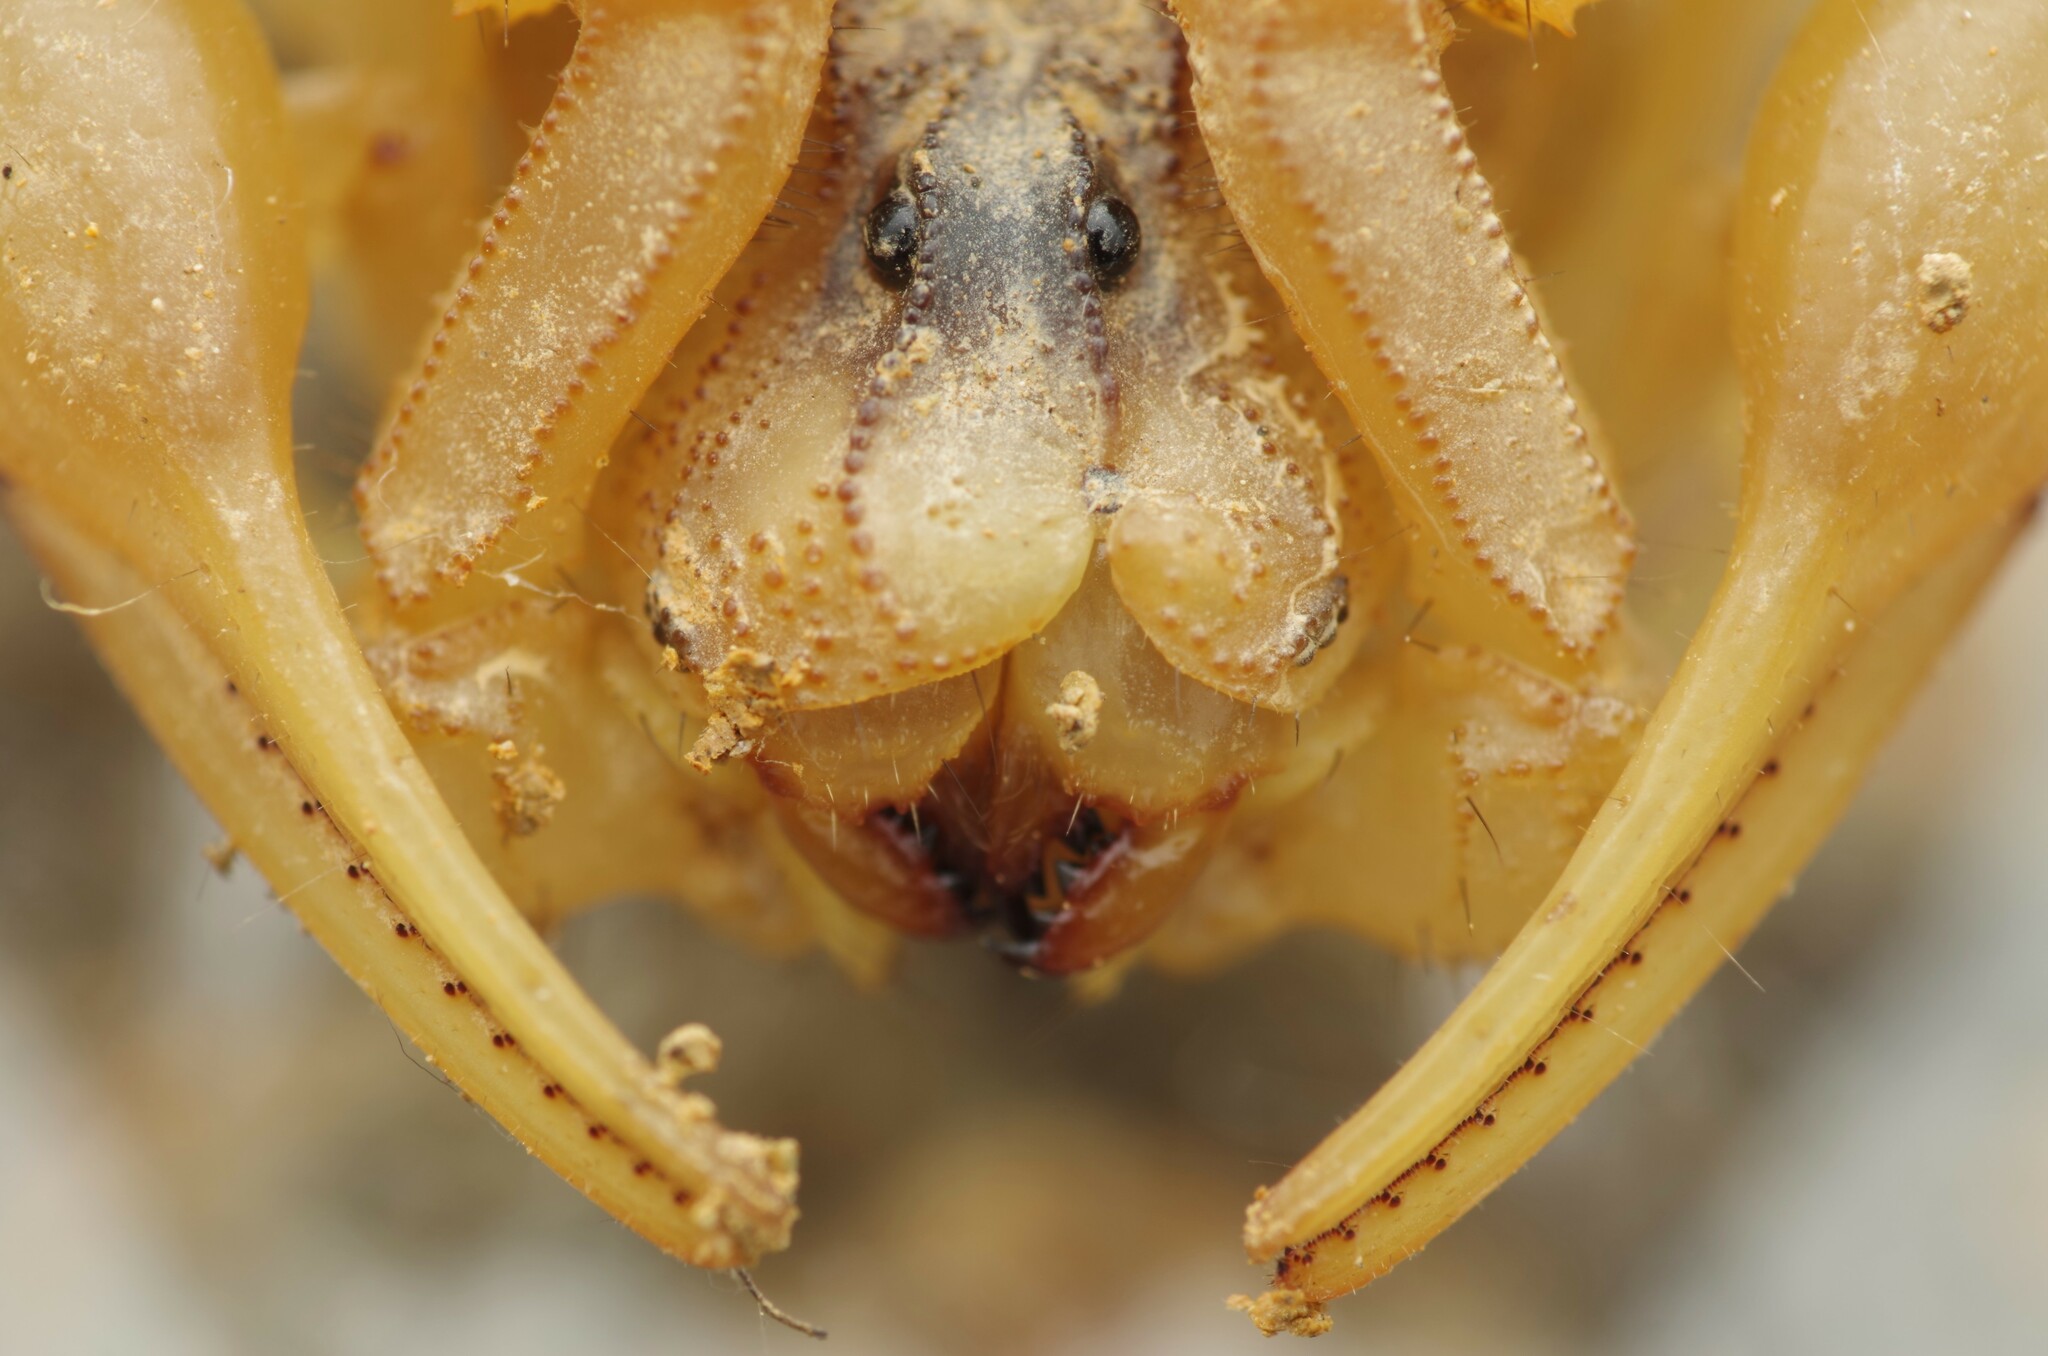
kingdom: Animalia
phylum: Arthropoda
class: Arachnida
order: Scorpiones
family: Buthidae
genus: Buthus
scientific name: Buthus pyrenaeus
